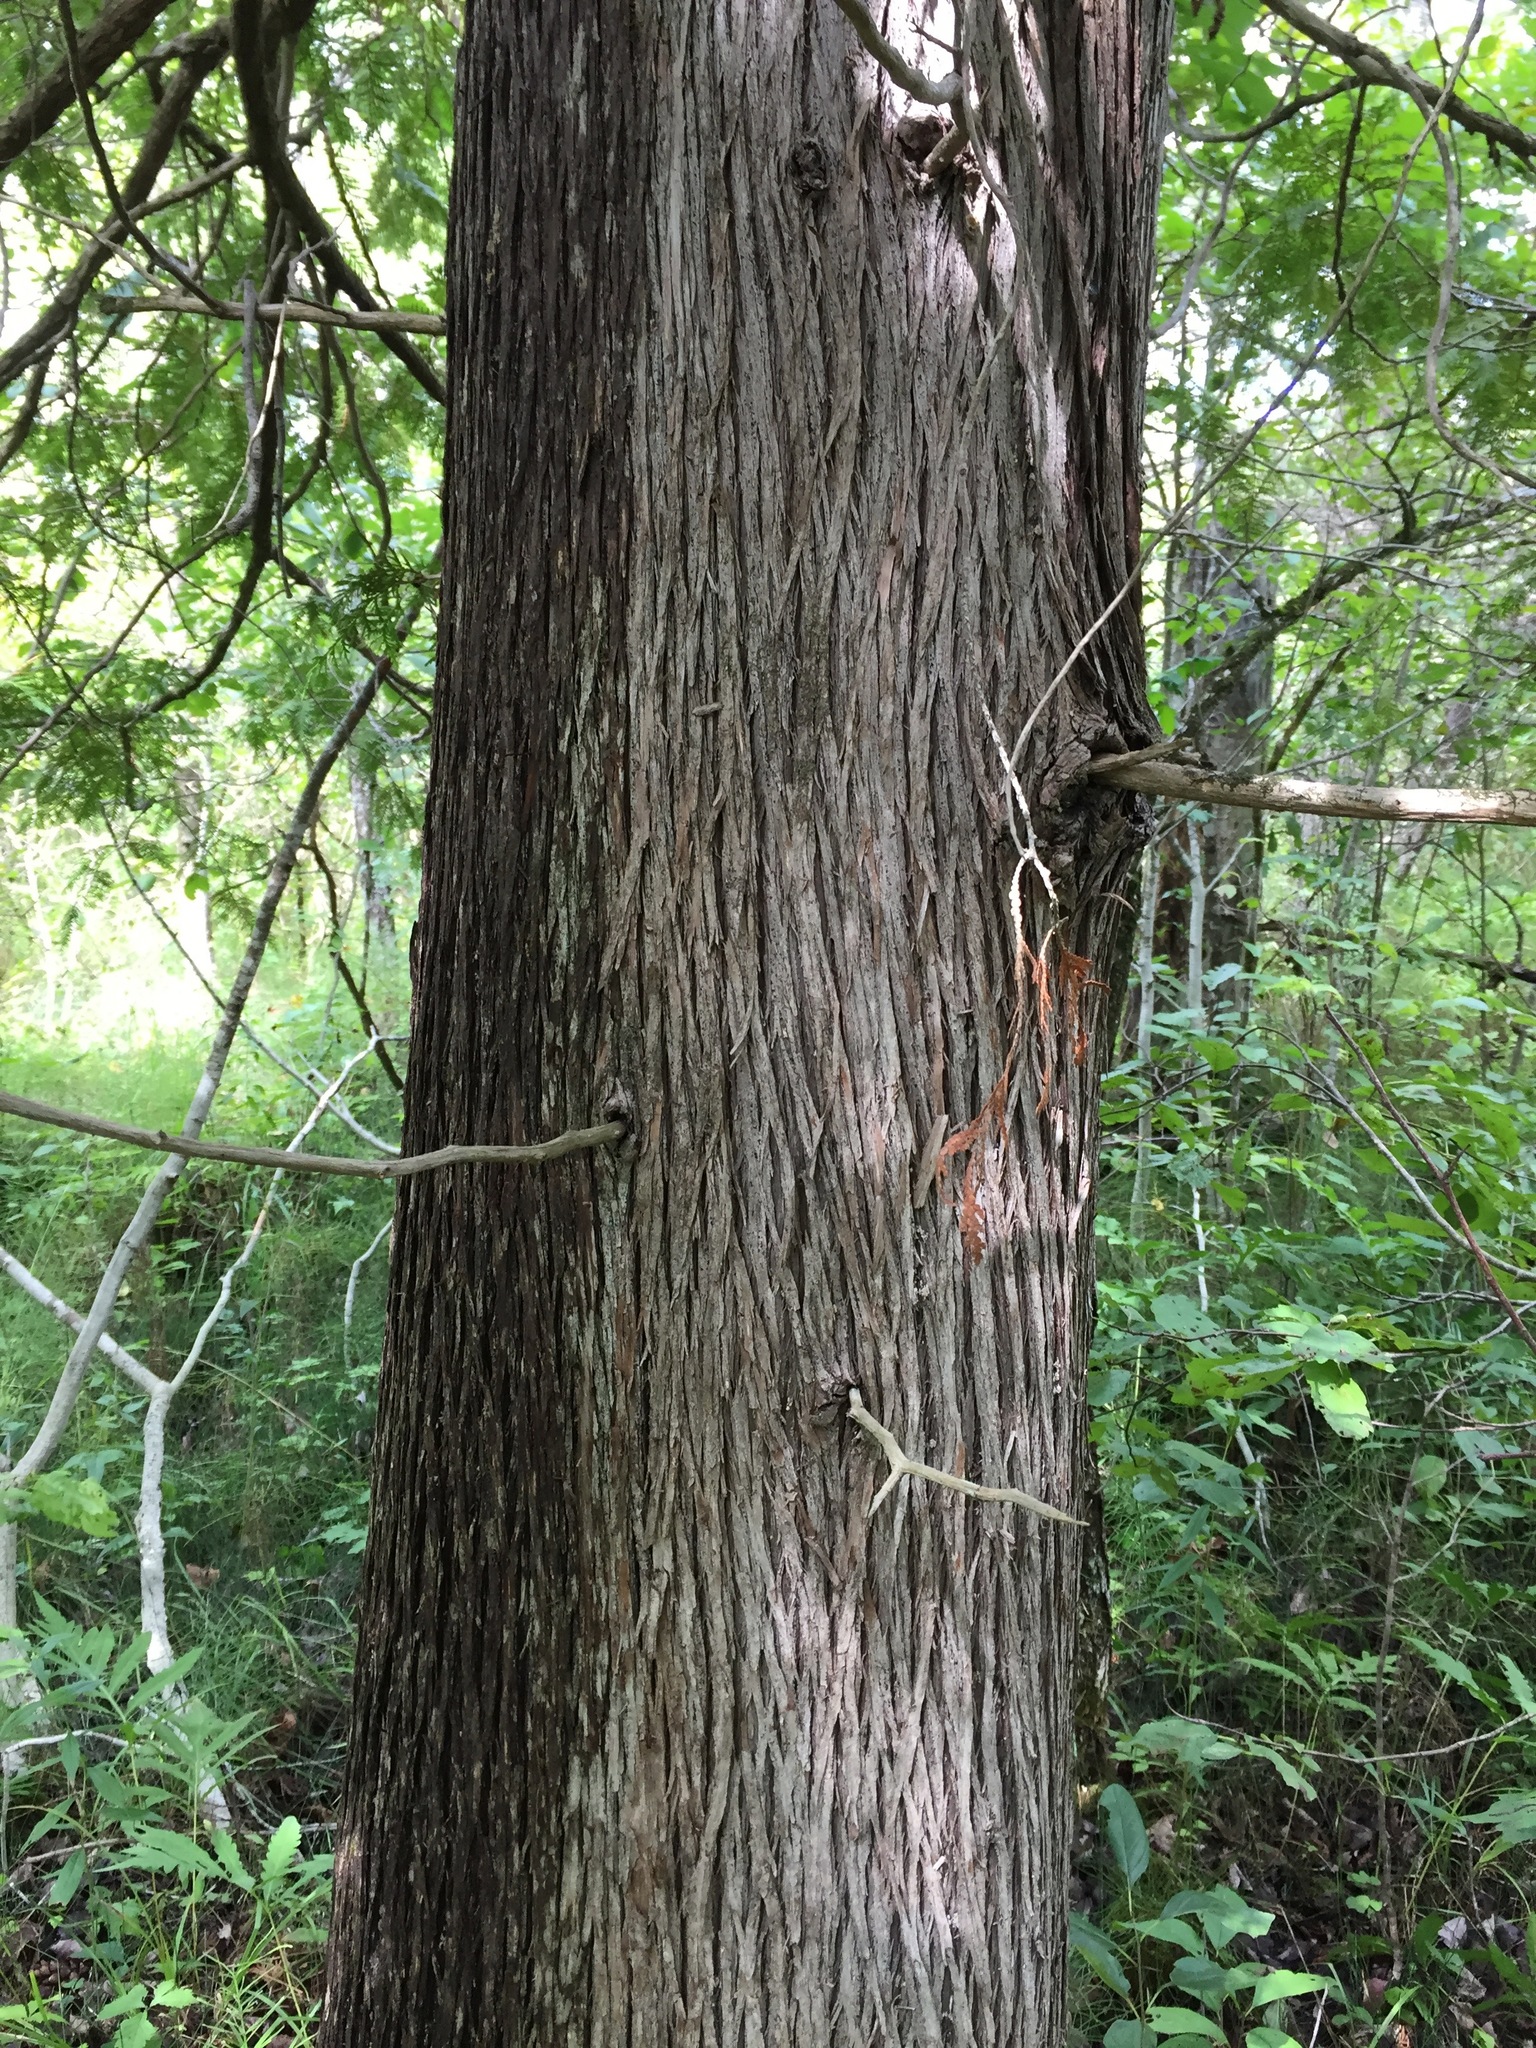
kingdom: Plantae
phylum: Tracheophyta
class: Pinopsida
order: Pinales
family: Cupressaceae
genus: Thuja
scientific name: Thuja occidentalis
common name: Northern white-cedar
